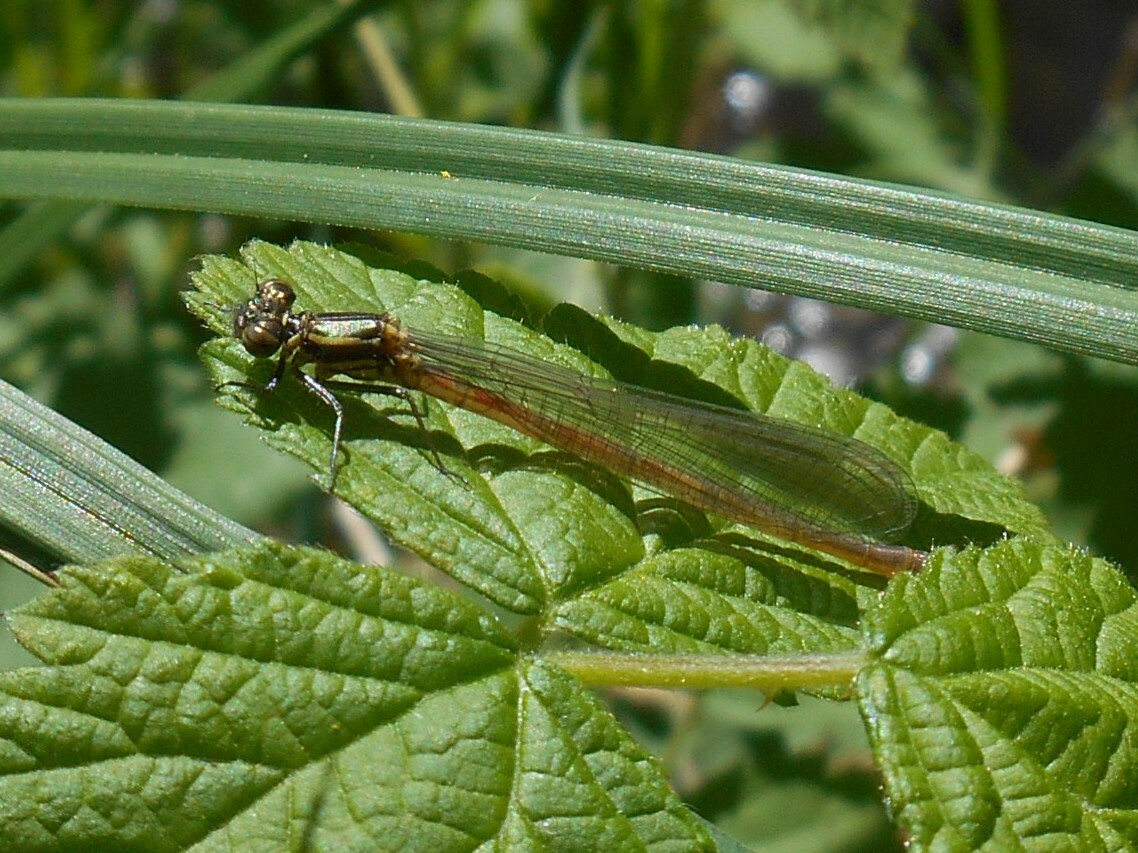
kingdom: Animalia
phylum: Arthropoda
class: Insecta
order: Odonata
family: Coenagrionidae
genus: Pyrrhosoma
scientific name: Pyrrhosoma nymphula
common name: Large red damsel
